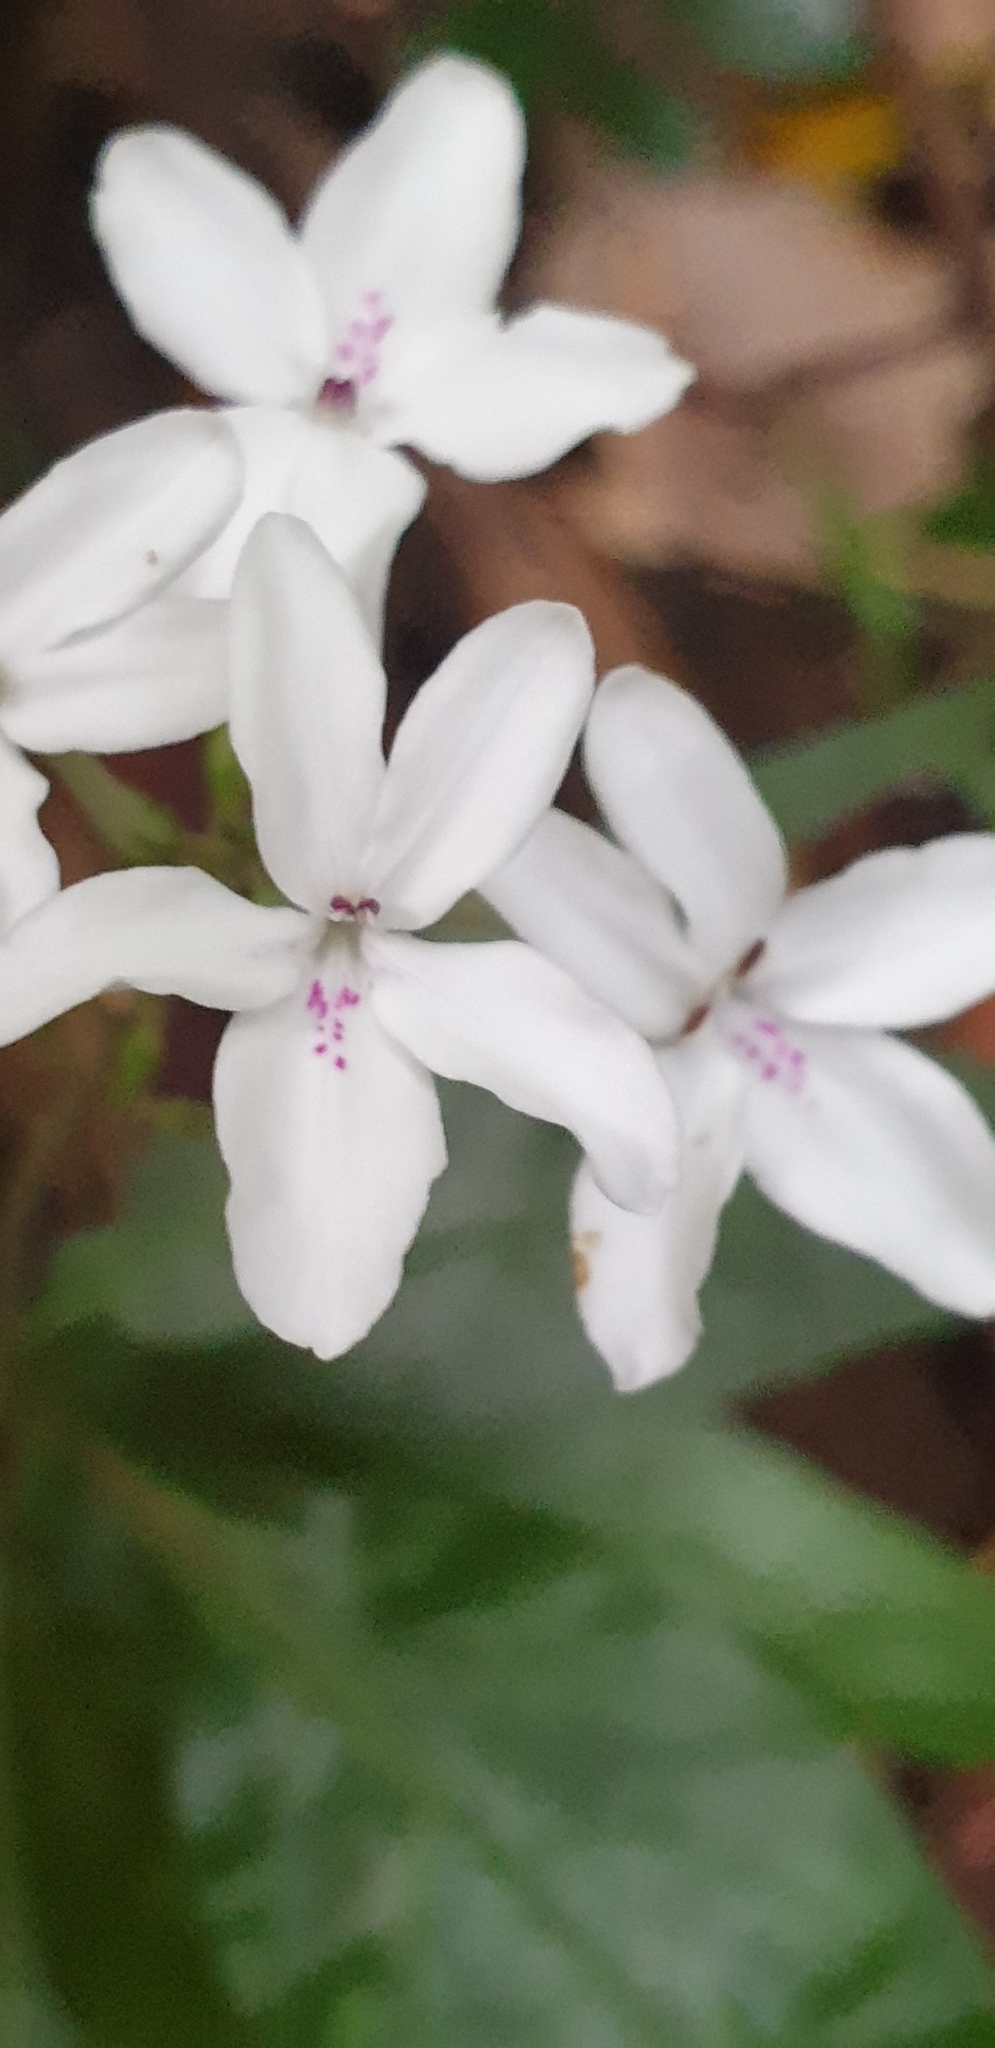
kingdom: Plantae
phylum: Tracheophyta
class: Magnoliopsida
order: Lamiales
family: Acanthaceae
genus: Pseuderanthemum
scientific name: Pseuderanthemum variabile
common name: Night and afternoon
